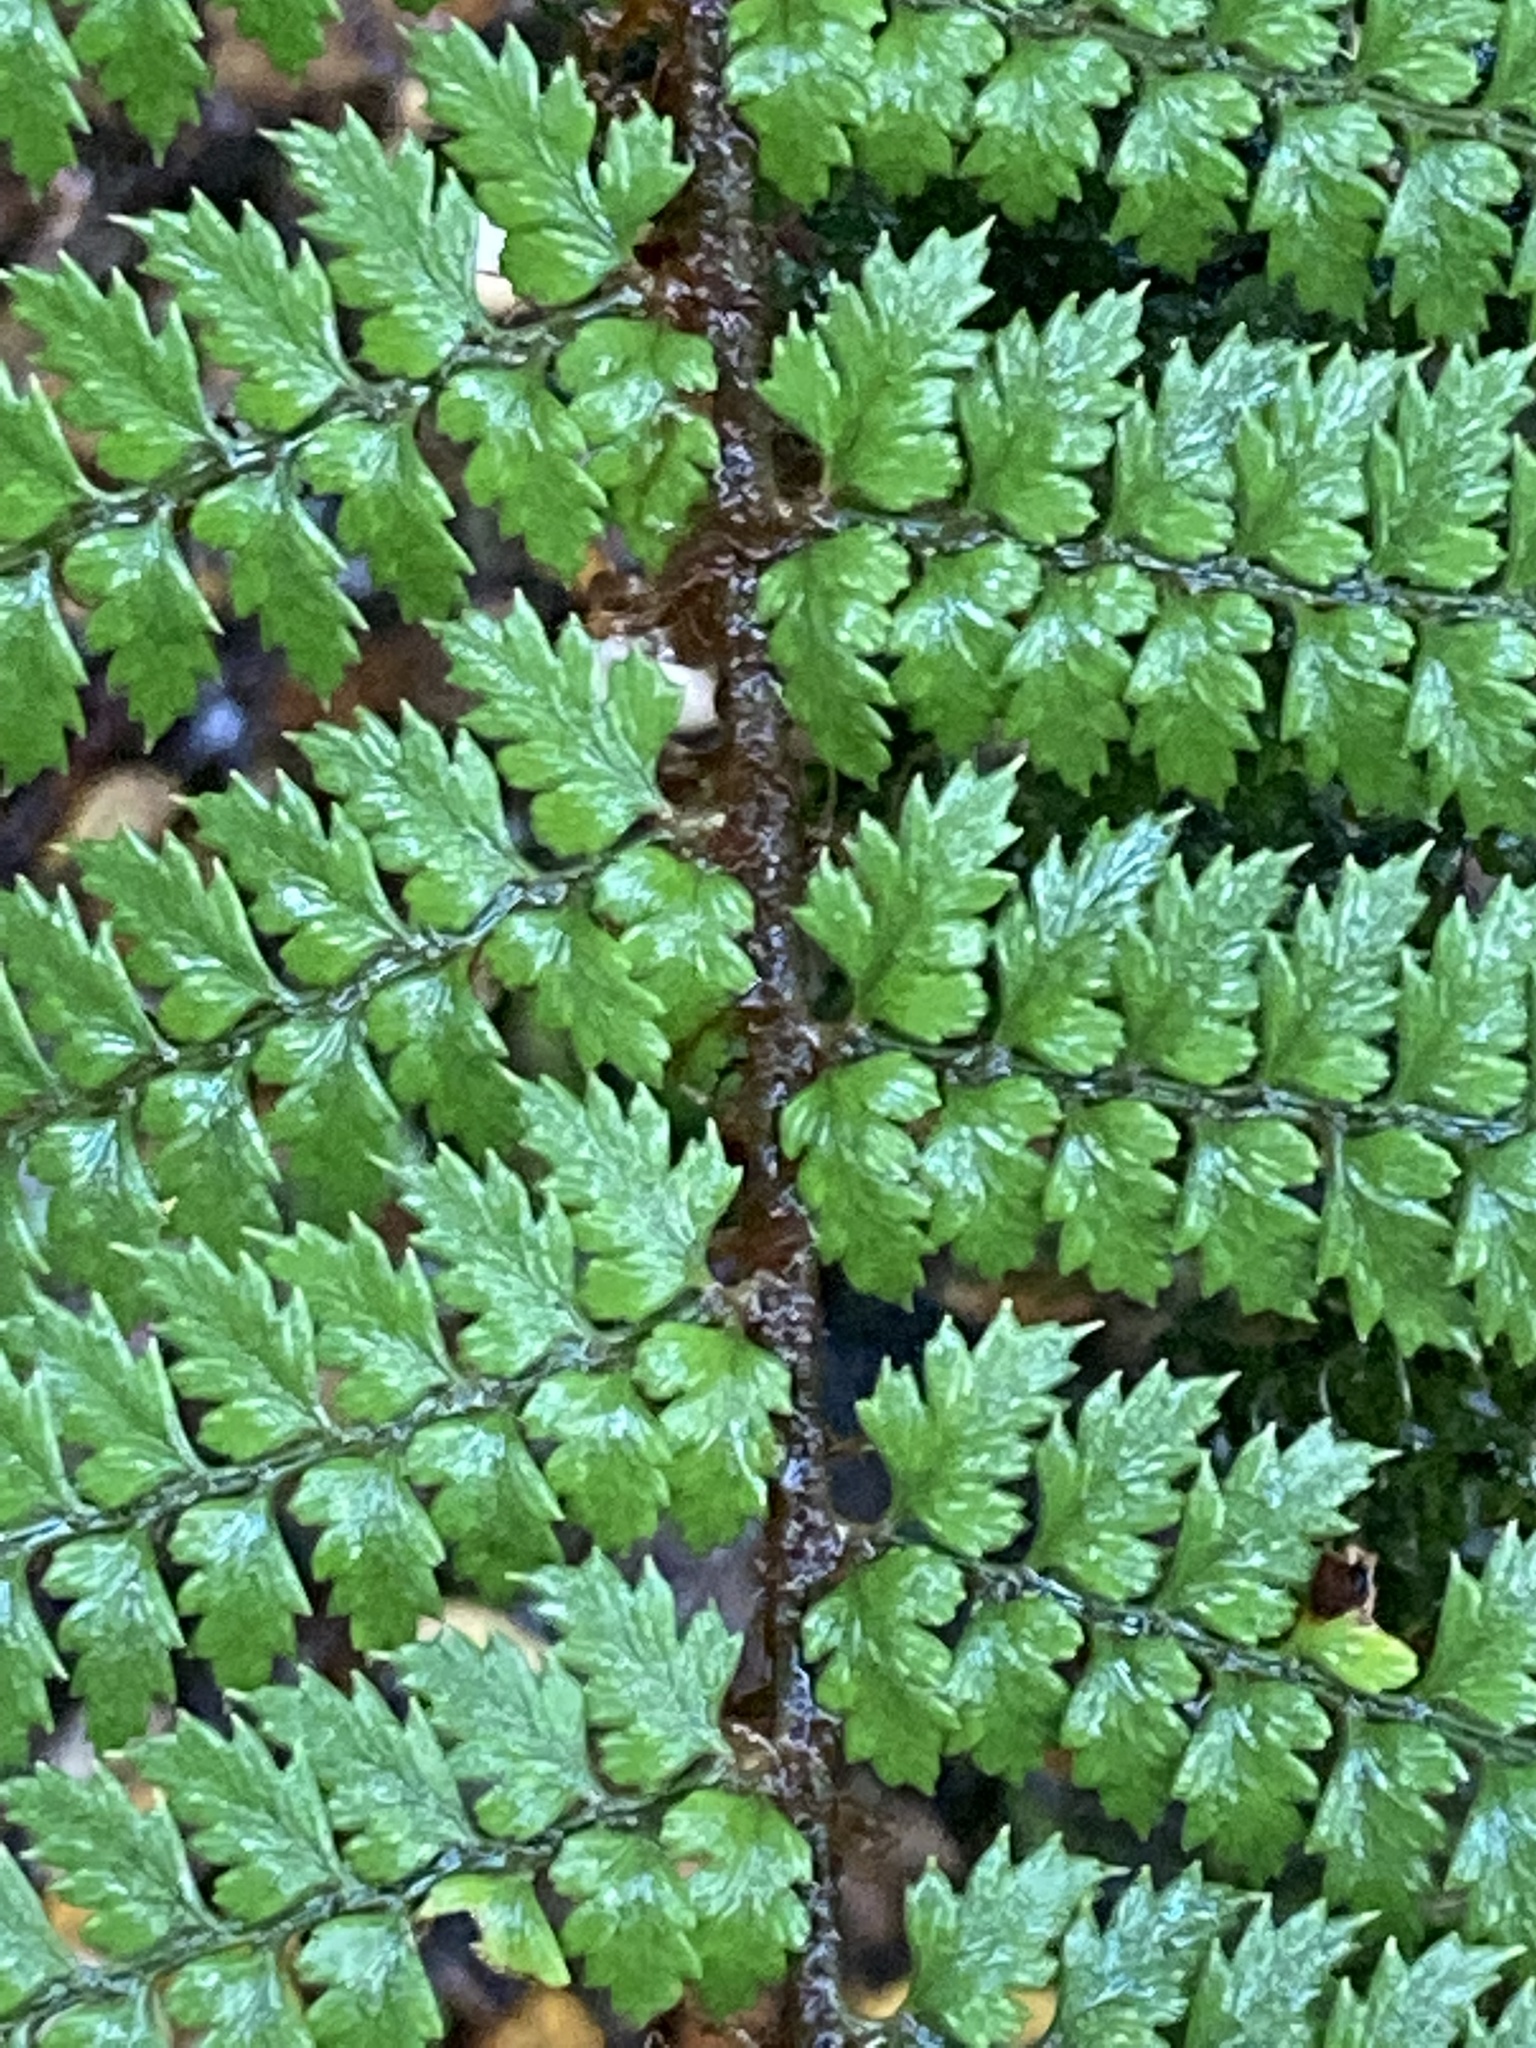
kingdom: Plantae
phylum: Tracheophyta
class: Polypodiopsida
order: Polypodiales
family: Dryopteridaceae
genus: Polystichum
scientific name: Polystichum vestitum
